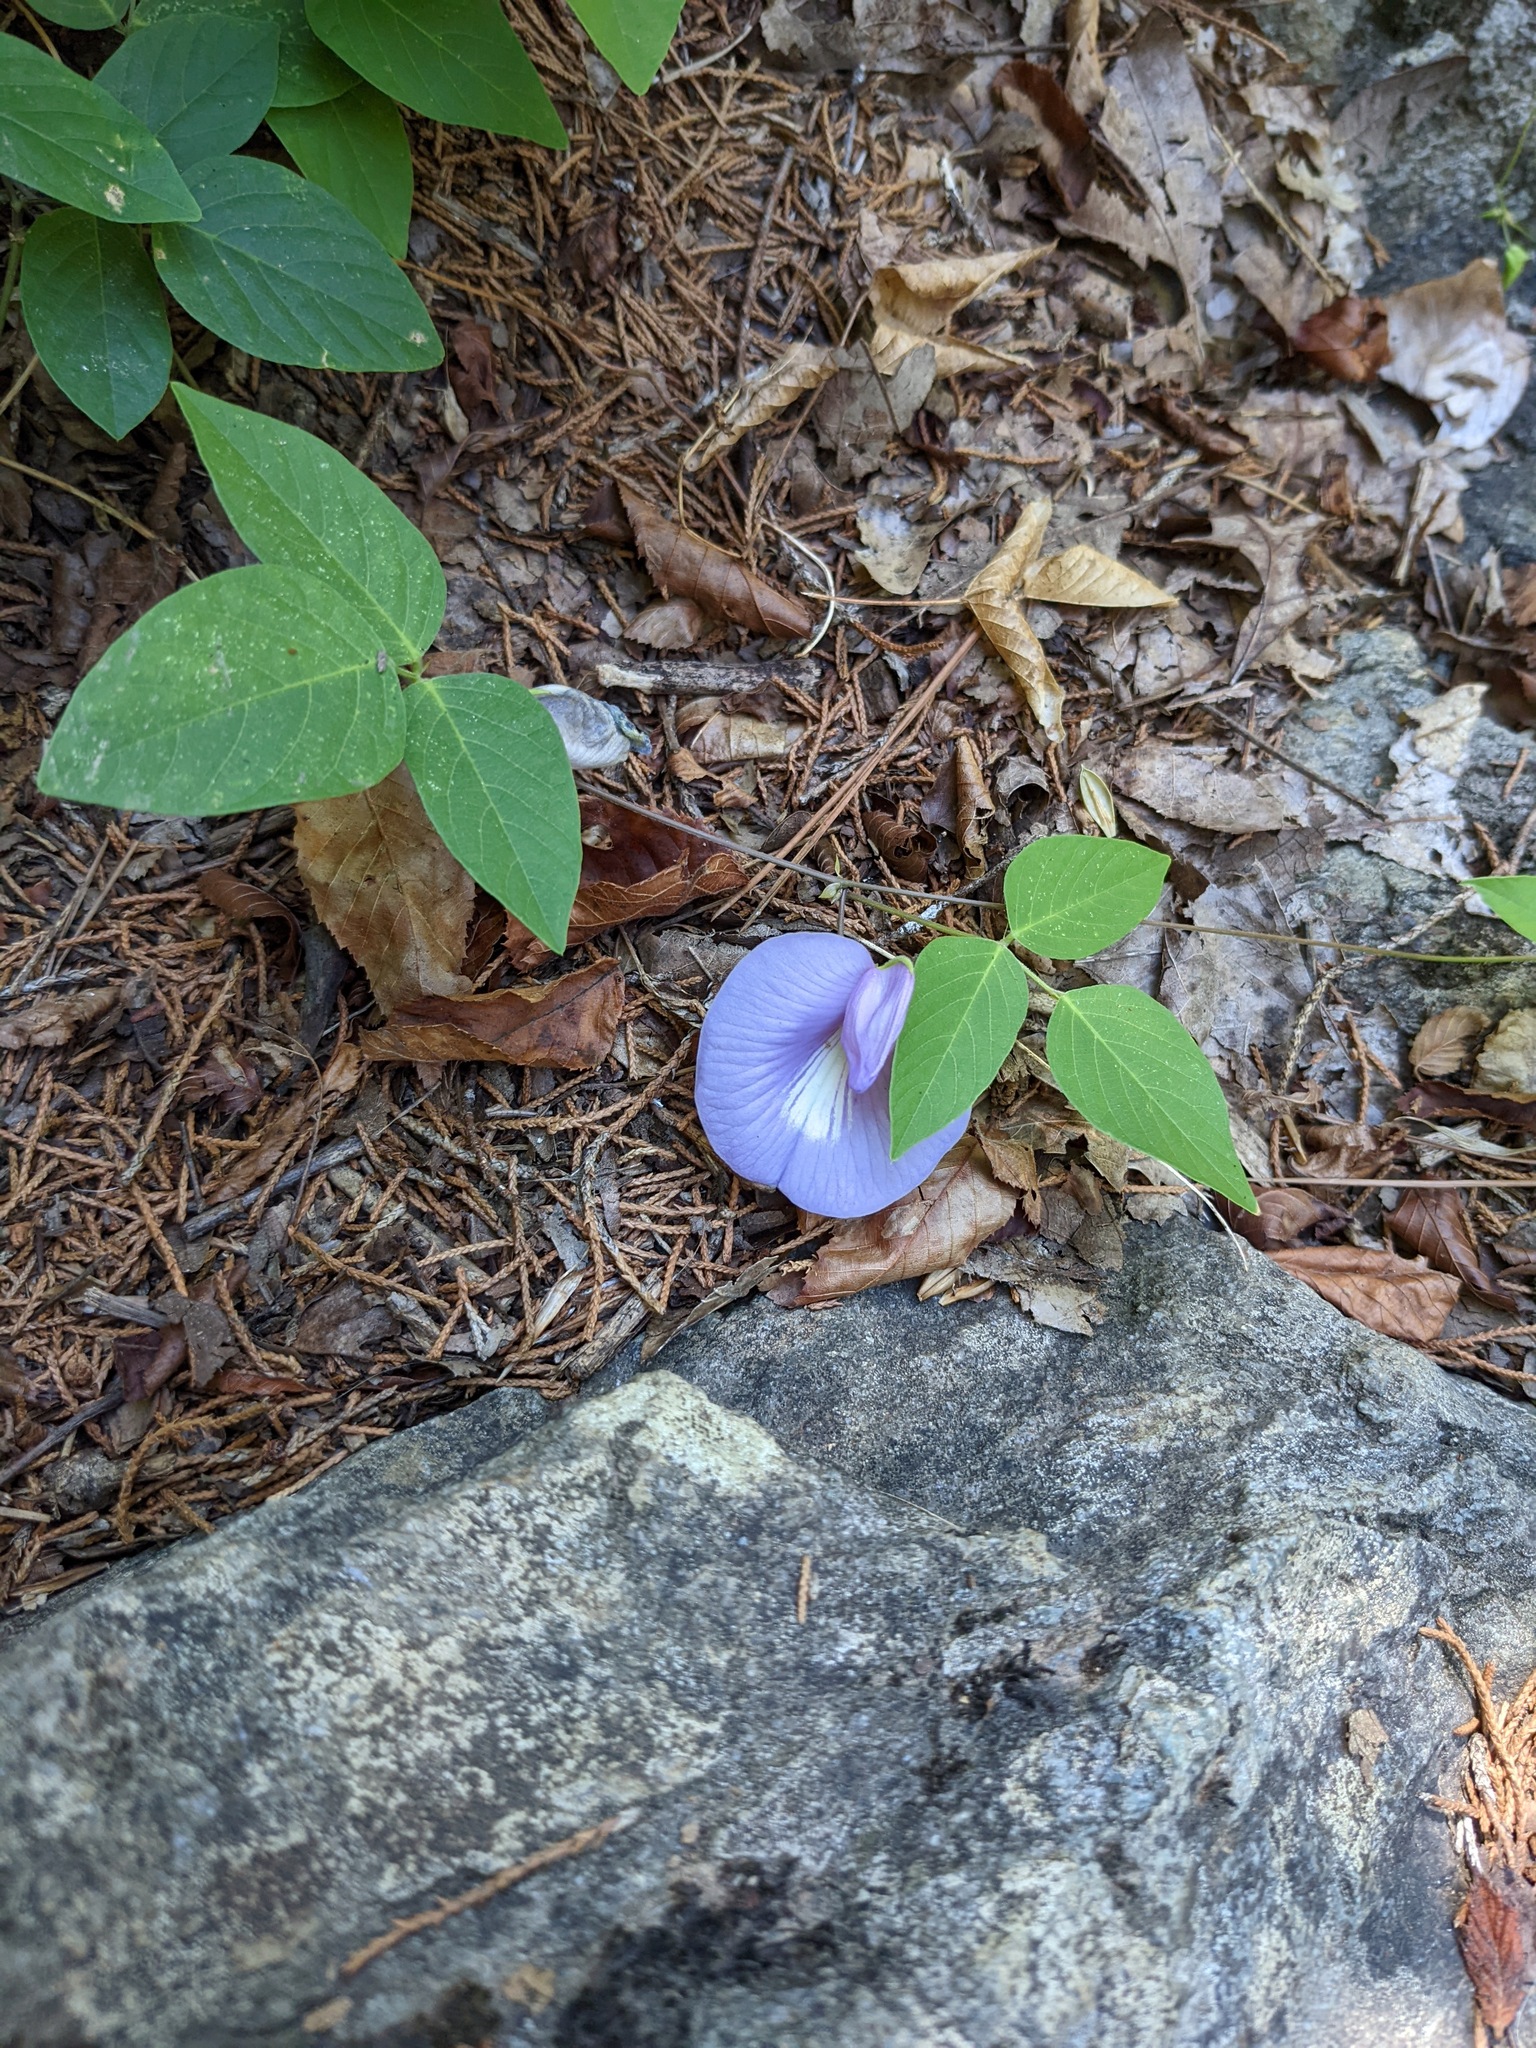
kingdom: Plantae
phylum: Tracheophyta
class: Magnoliopsida
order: Fabales
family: Fabaceae
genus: Centrosema
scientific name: Centrosema virginianum
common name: Butterfly-pea
